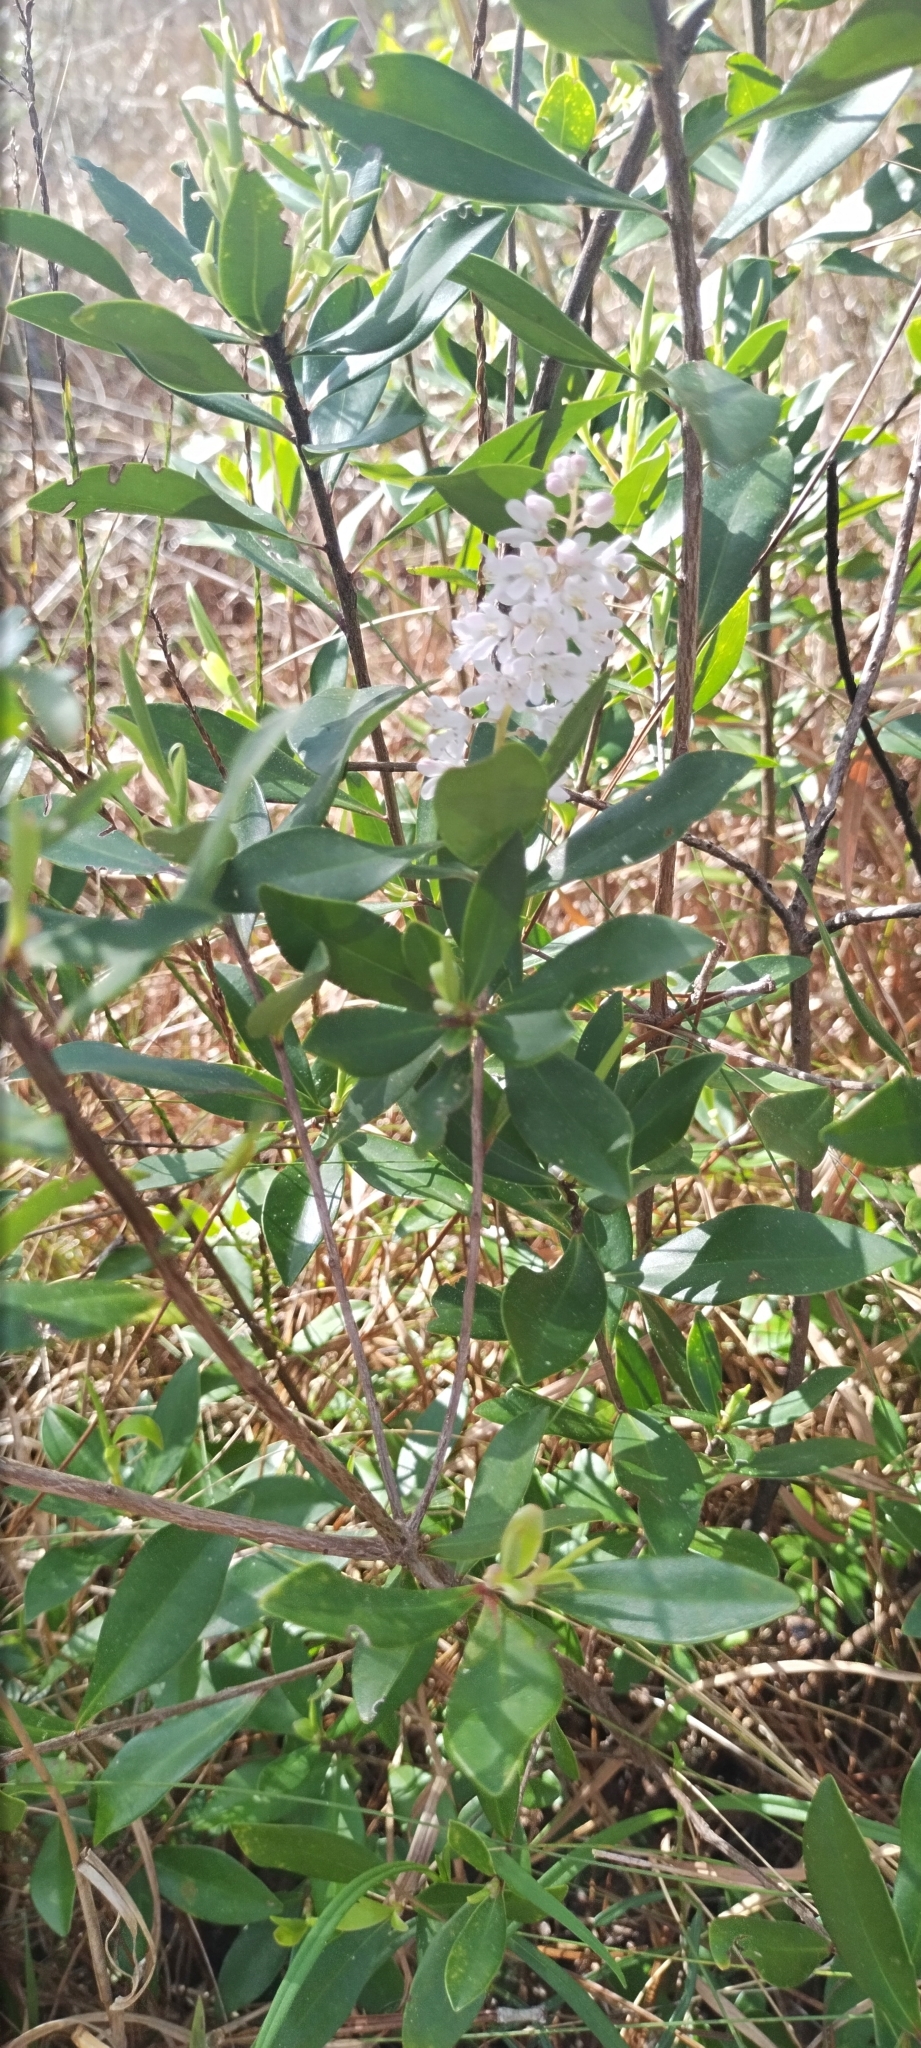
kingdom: Plantae
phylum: Tracheophyta
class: Magnoliopsida
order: Ericales
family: Cyrillaceae
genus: Cliftonia
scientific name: Cliftonia monophylla
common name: Titi
